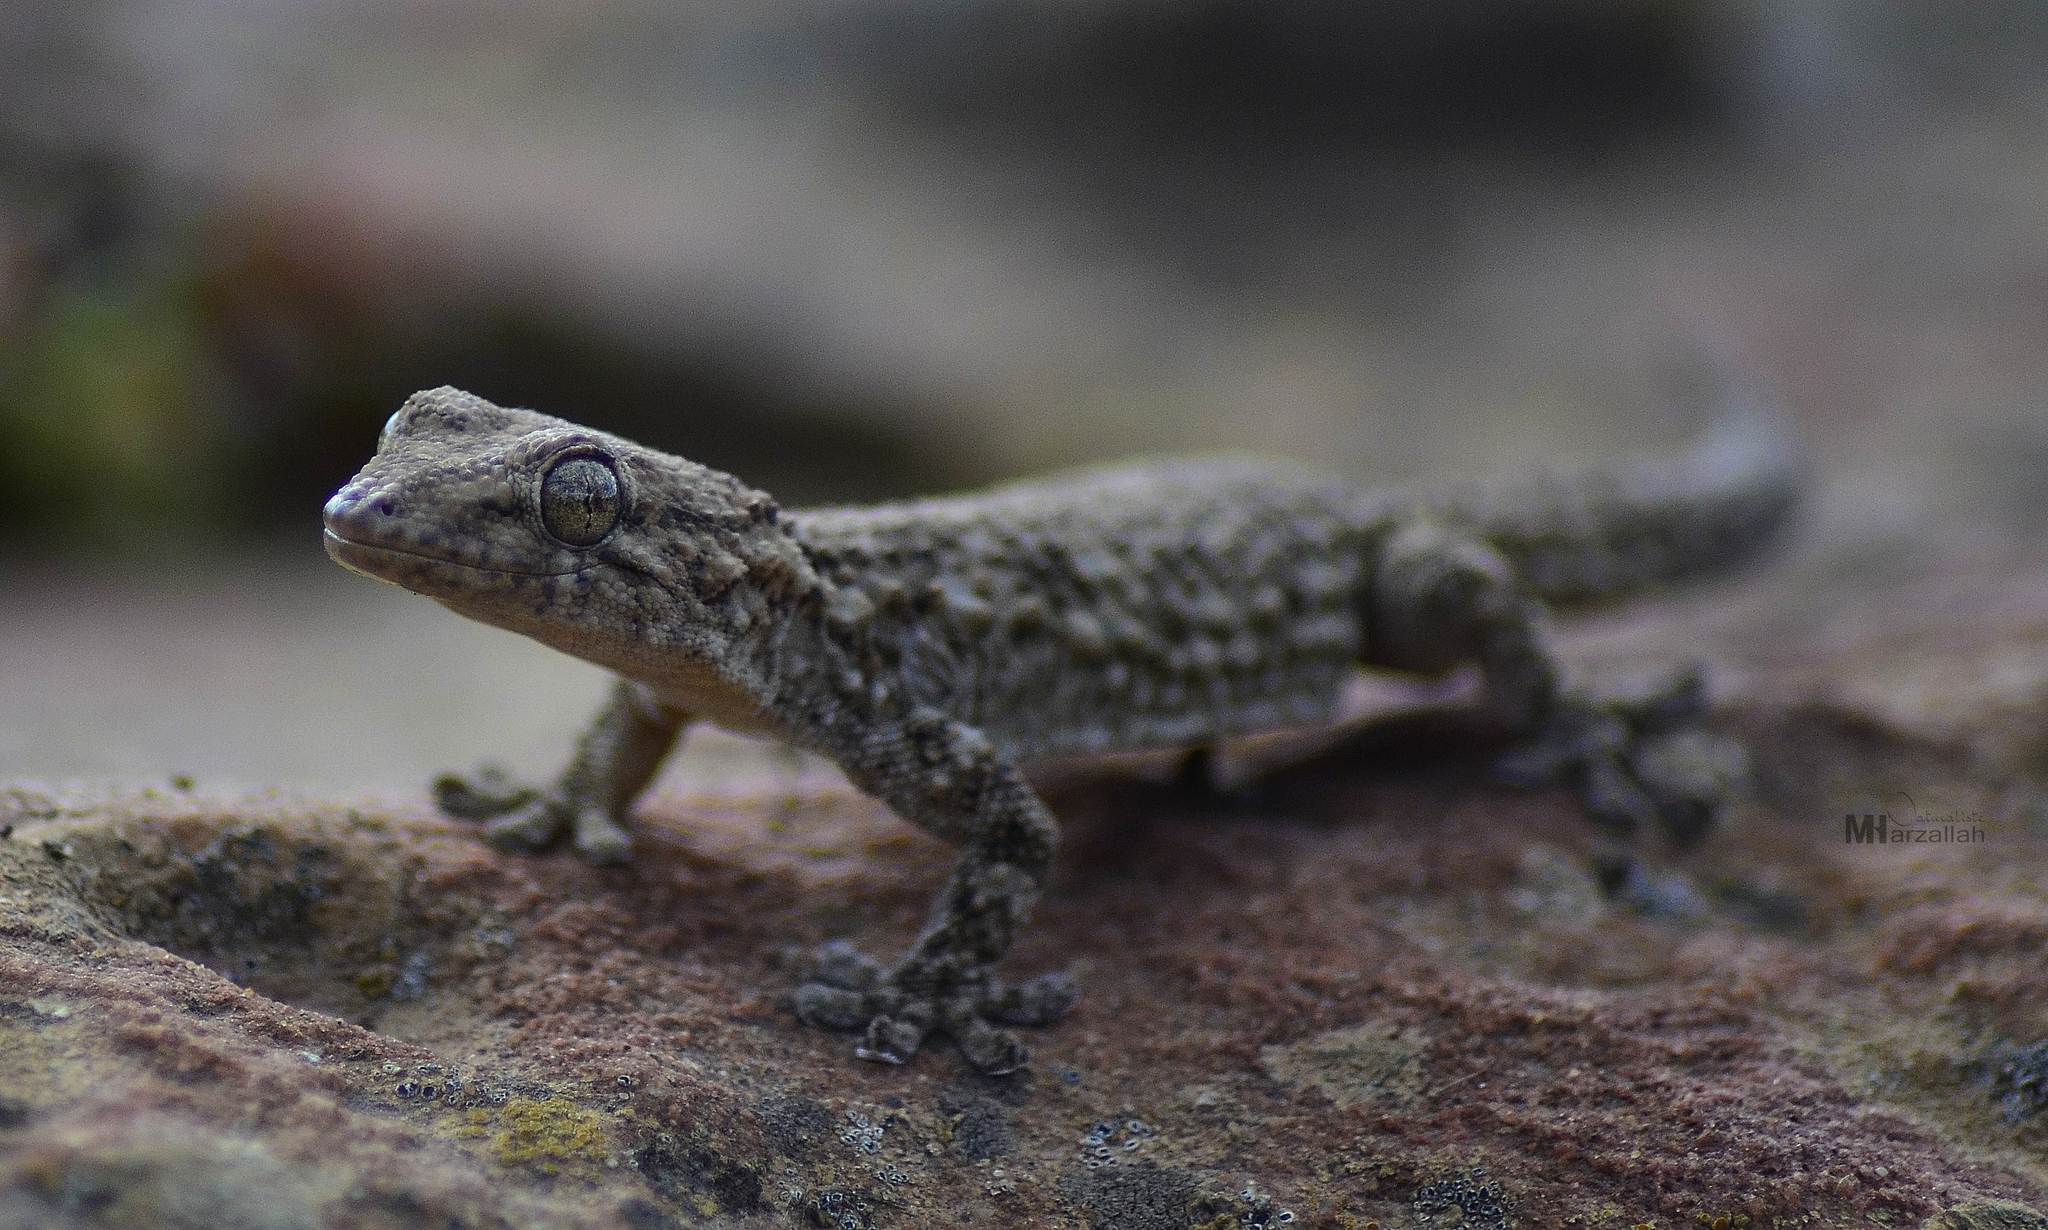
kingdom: Animalia
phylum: Chordata
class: Squamata
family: Phyllodactylidae
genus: Tarentola
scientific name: Tarentola mauritanica
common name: Moorish gecko
